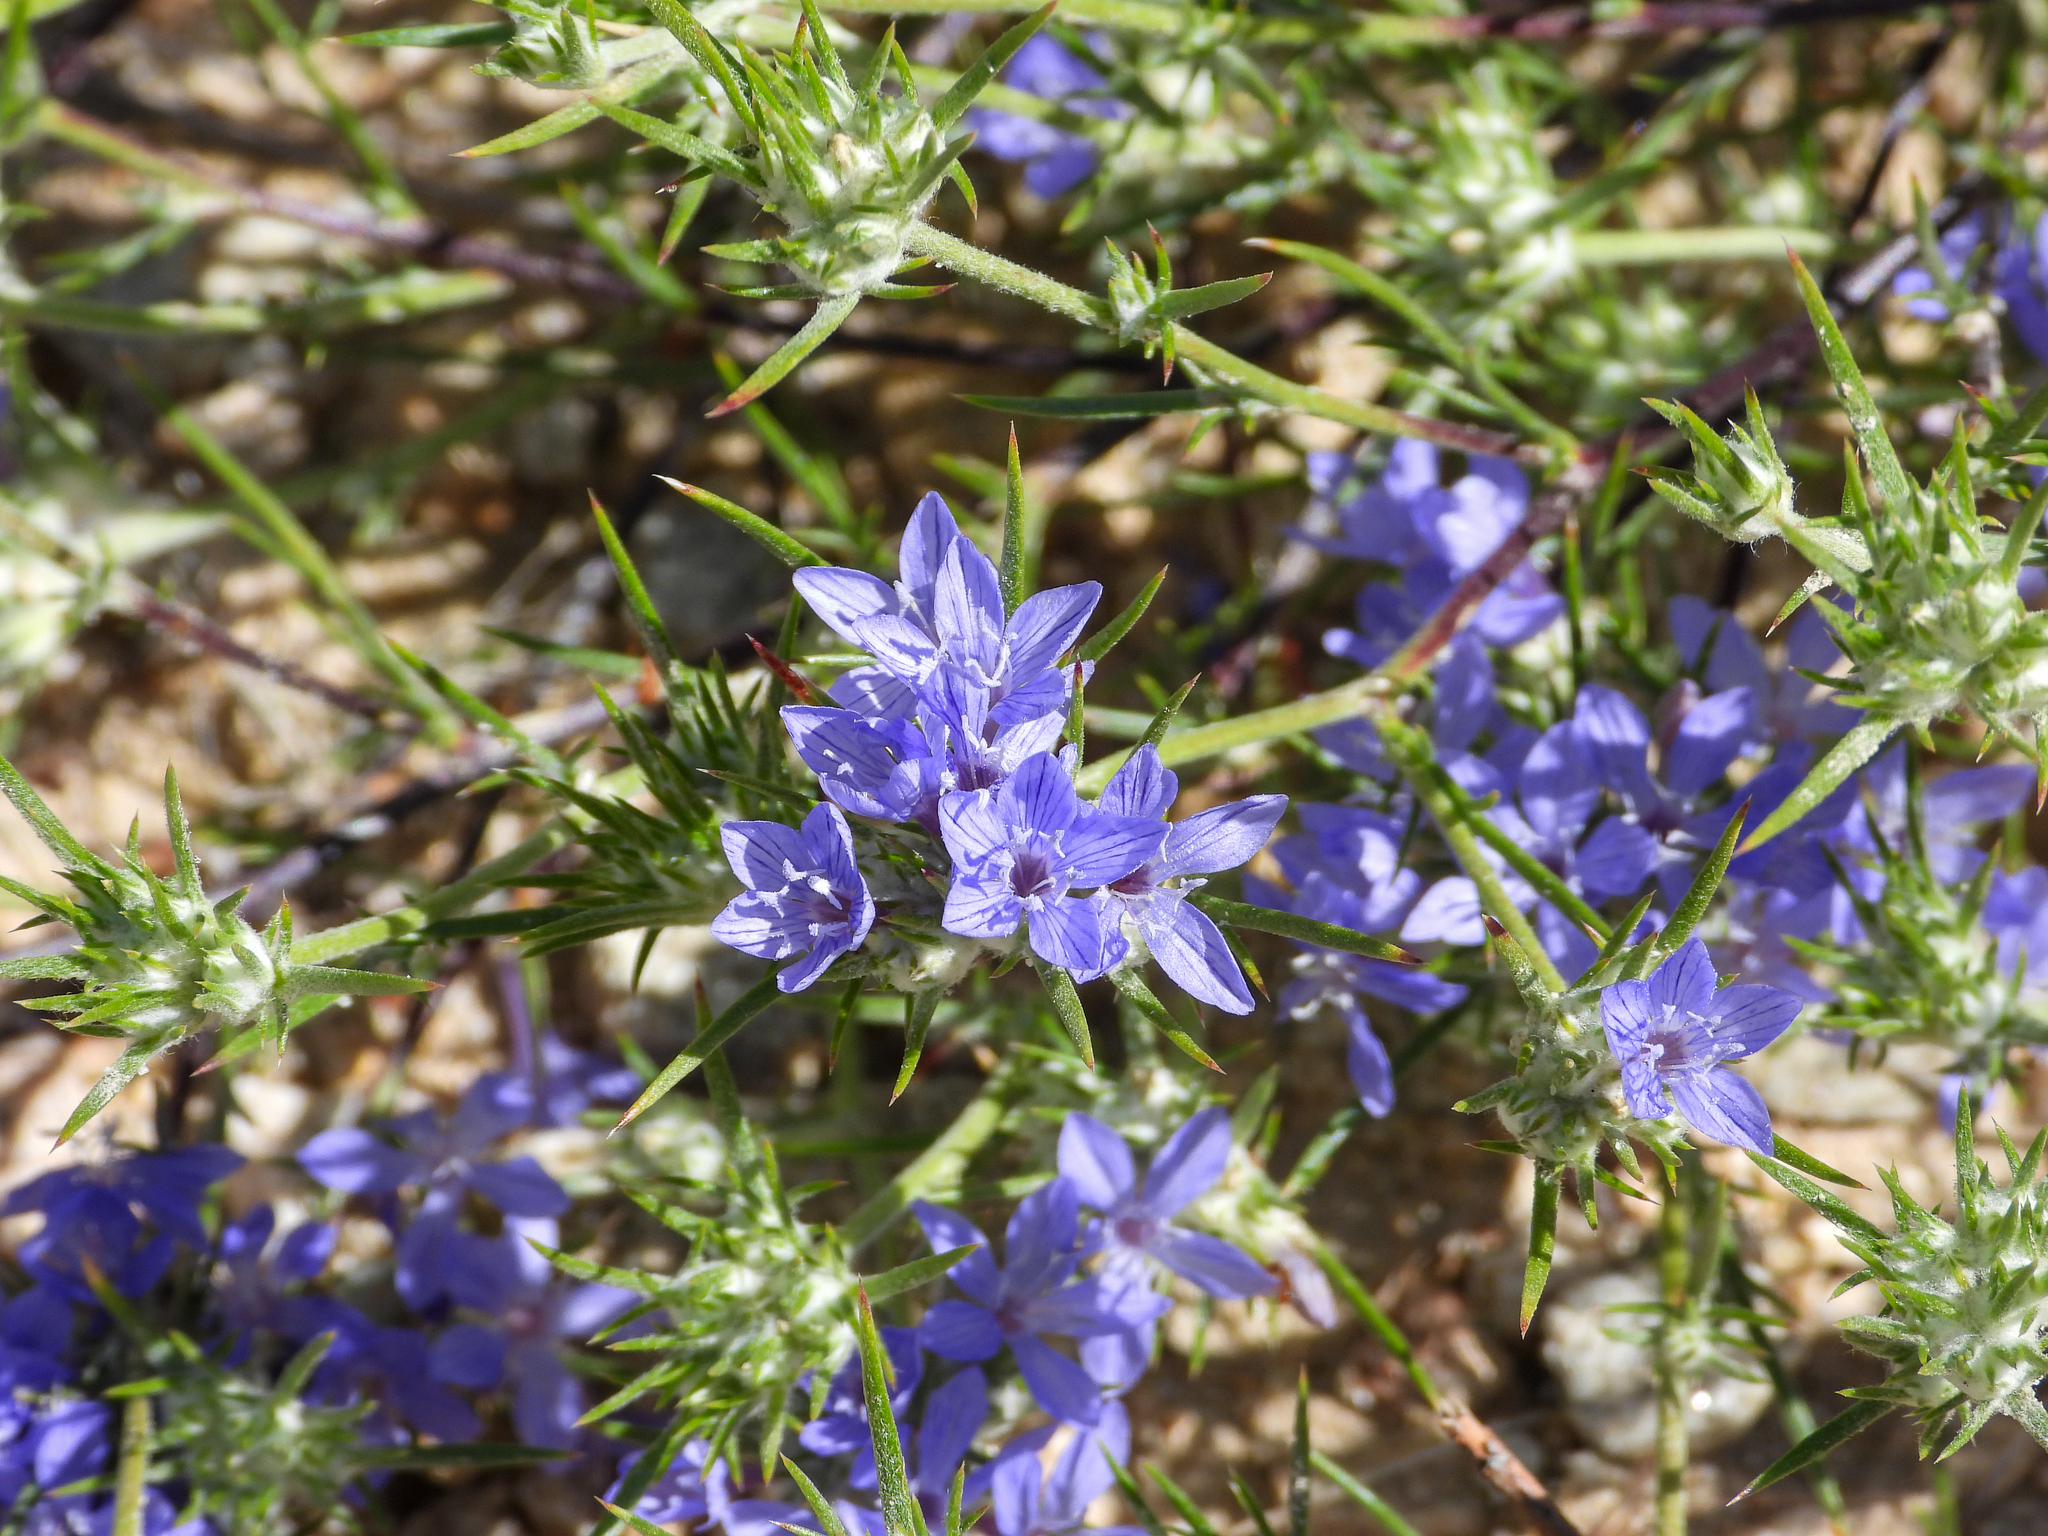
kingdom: Plantae
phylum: Tracheophyta
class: Magnoliopsida
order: Ericales
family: Polemoniaceae
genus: Eriastrum
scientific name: Eriastrum densifolium
